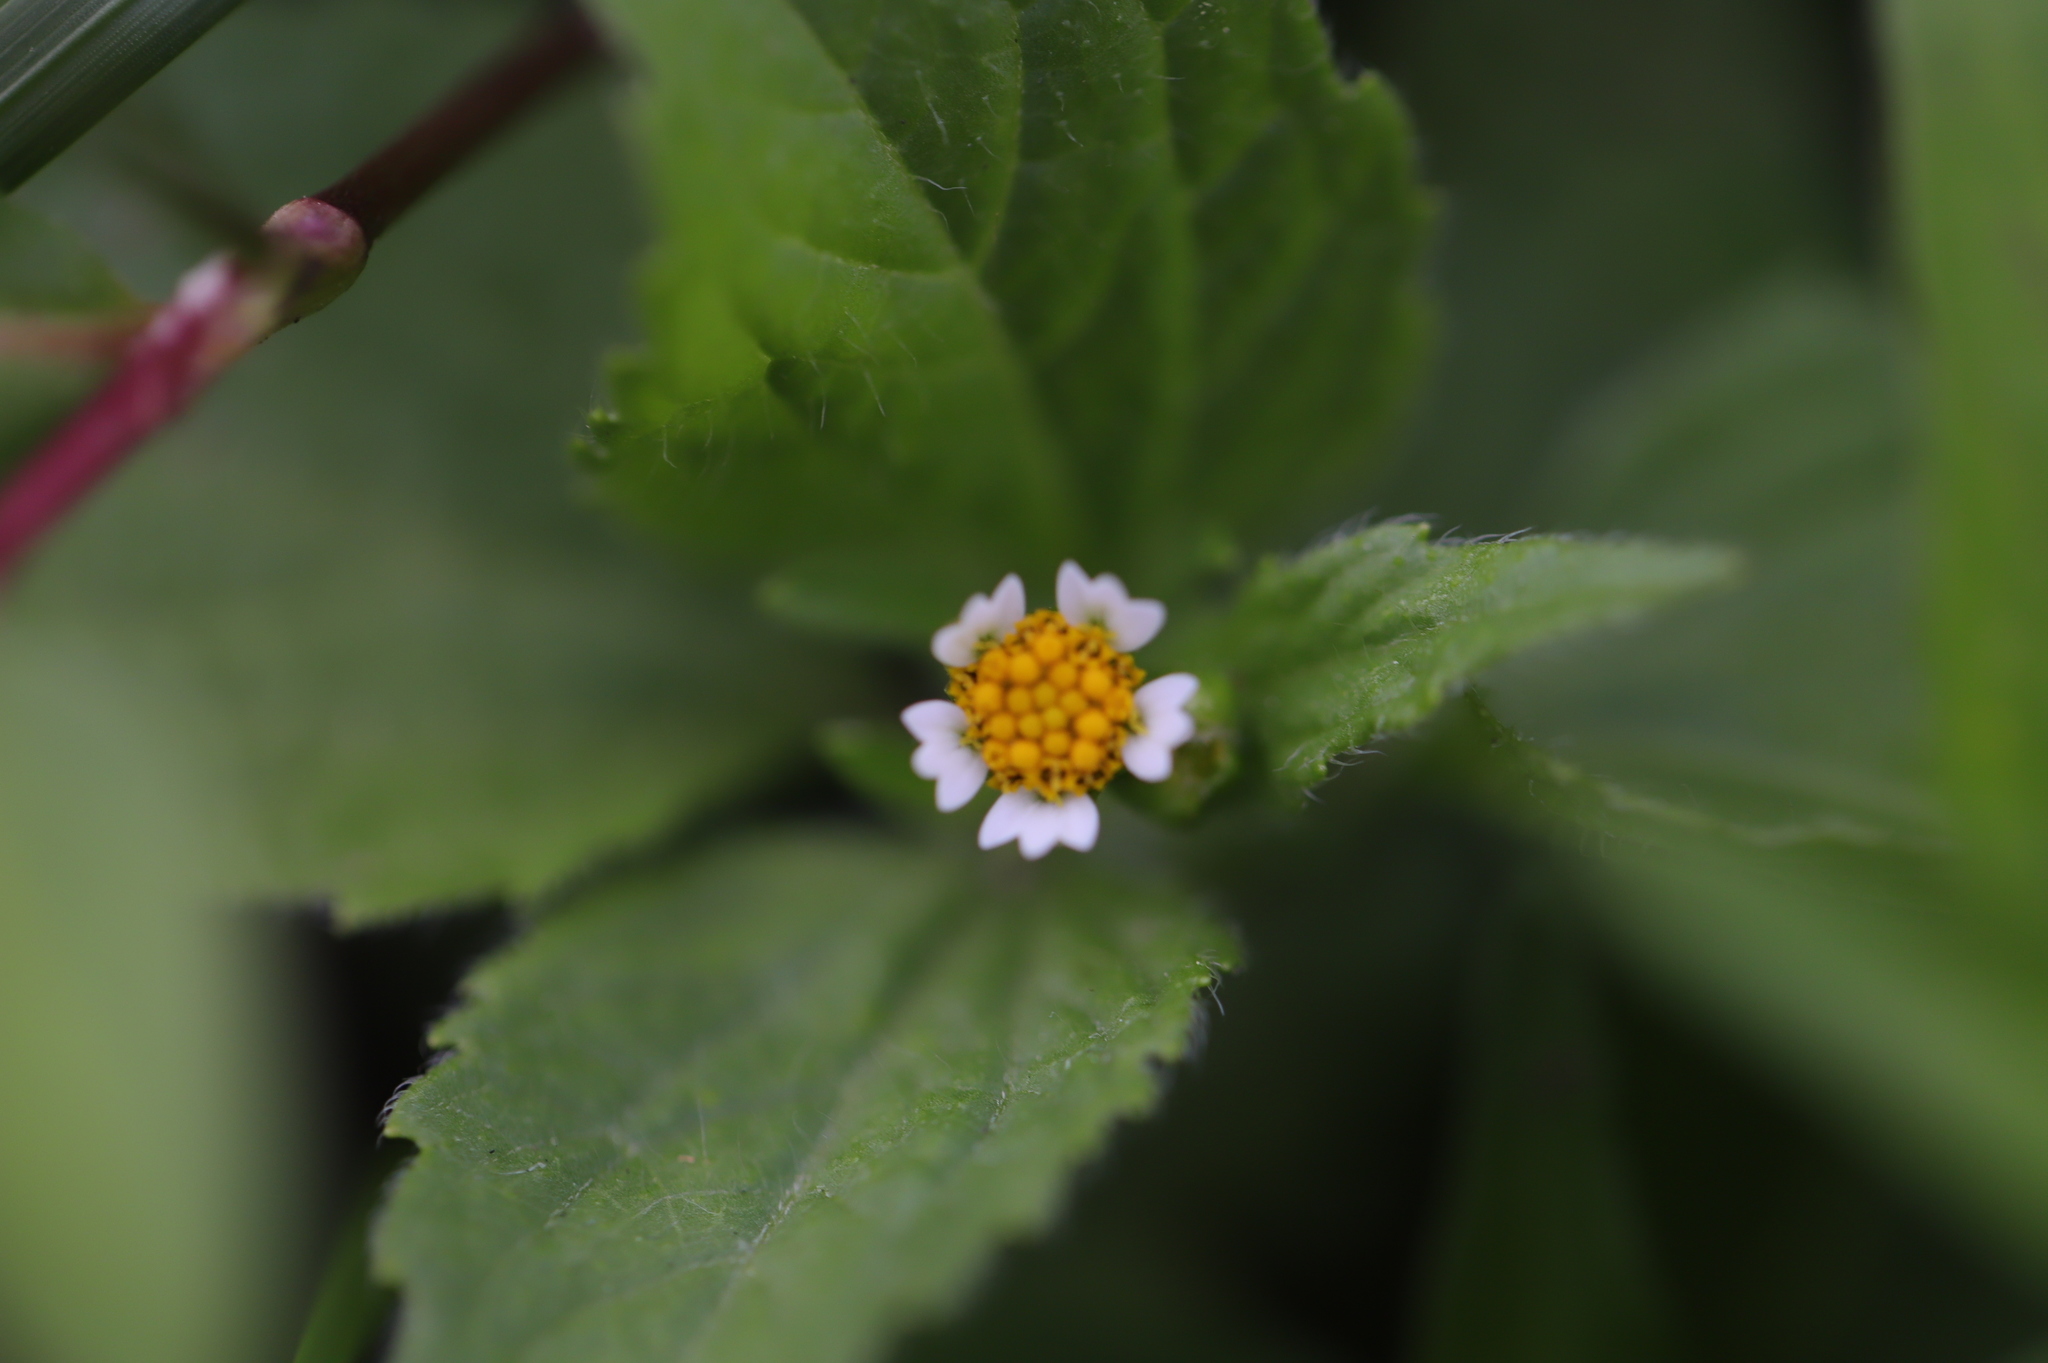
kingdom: Plantae
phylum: Tracheophyta
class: Magnoliopsida
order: Asterales
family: Asteraceae
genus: Galinsoga
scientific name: Galinsoga quadriradiata
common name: Shaggy soldier
